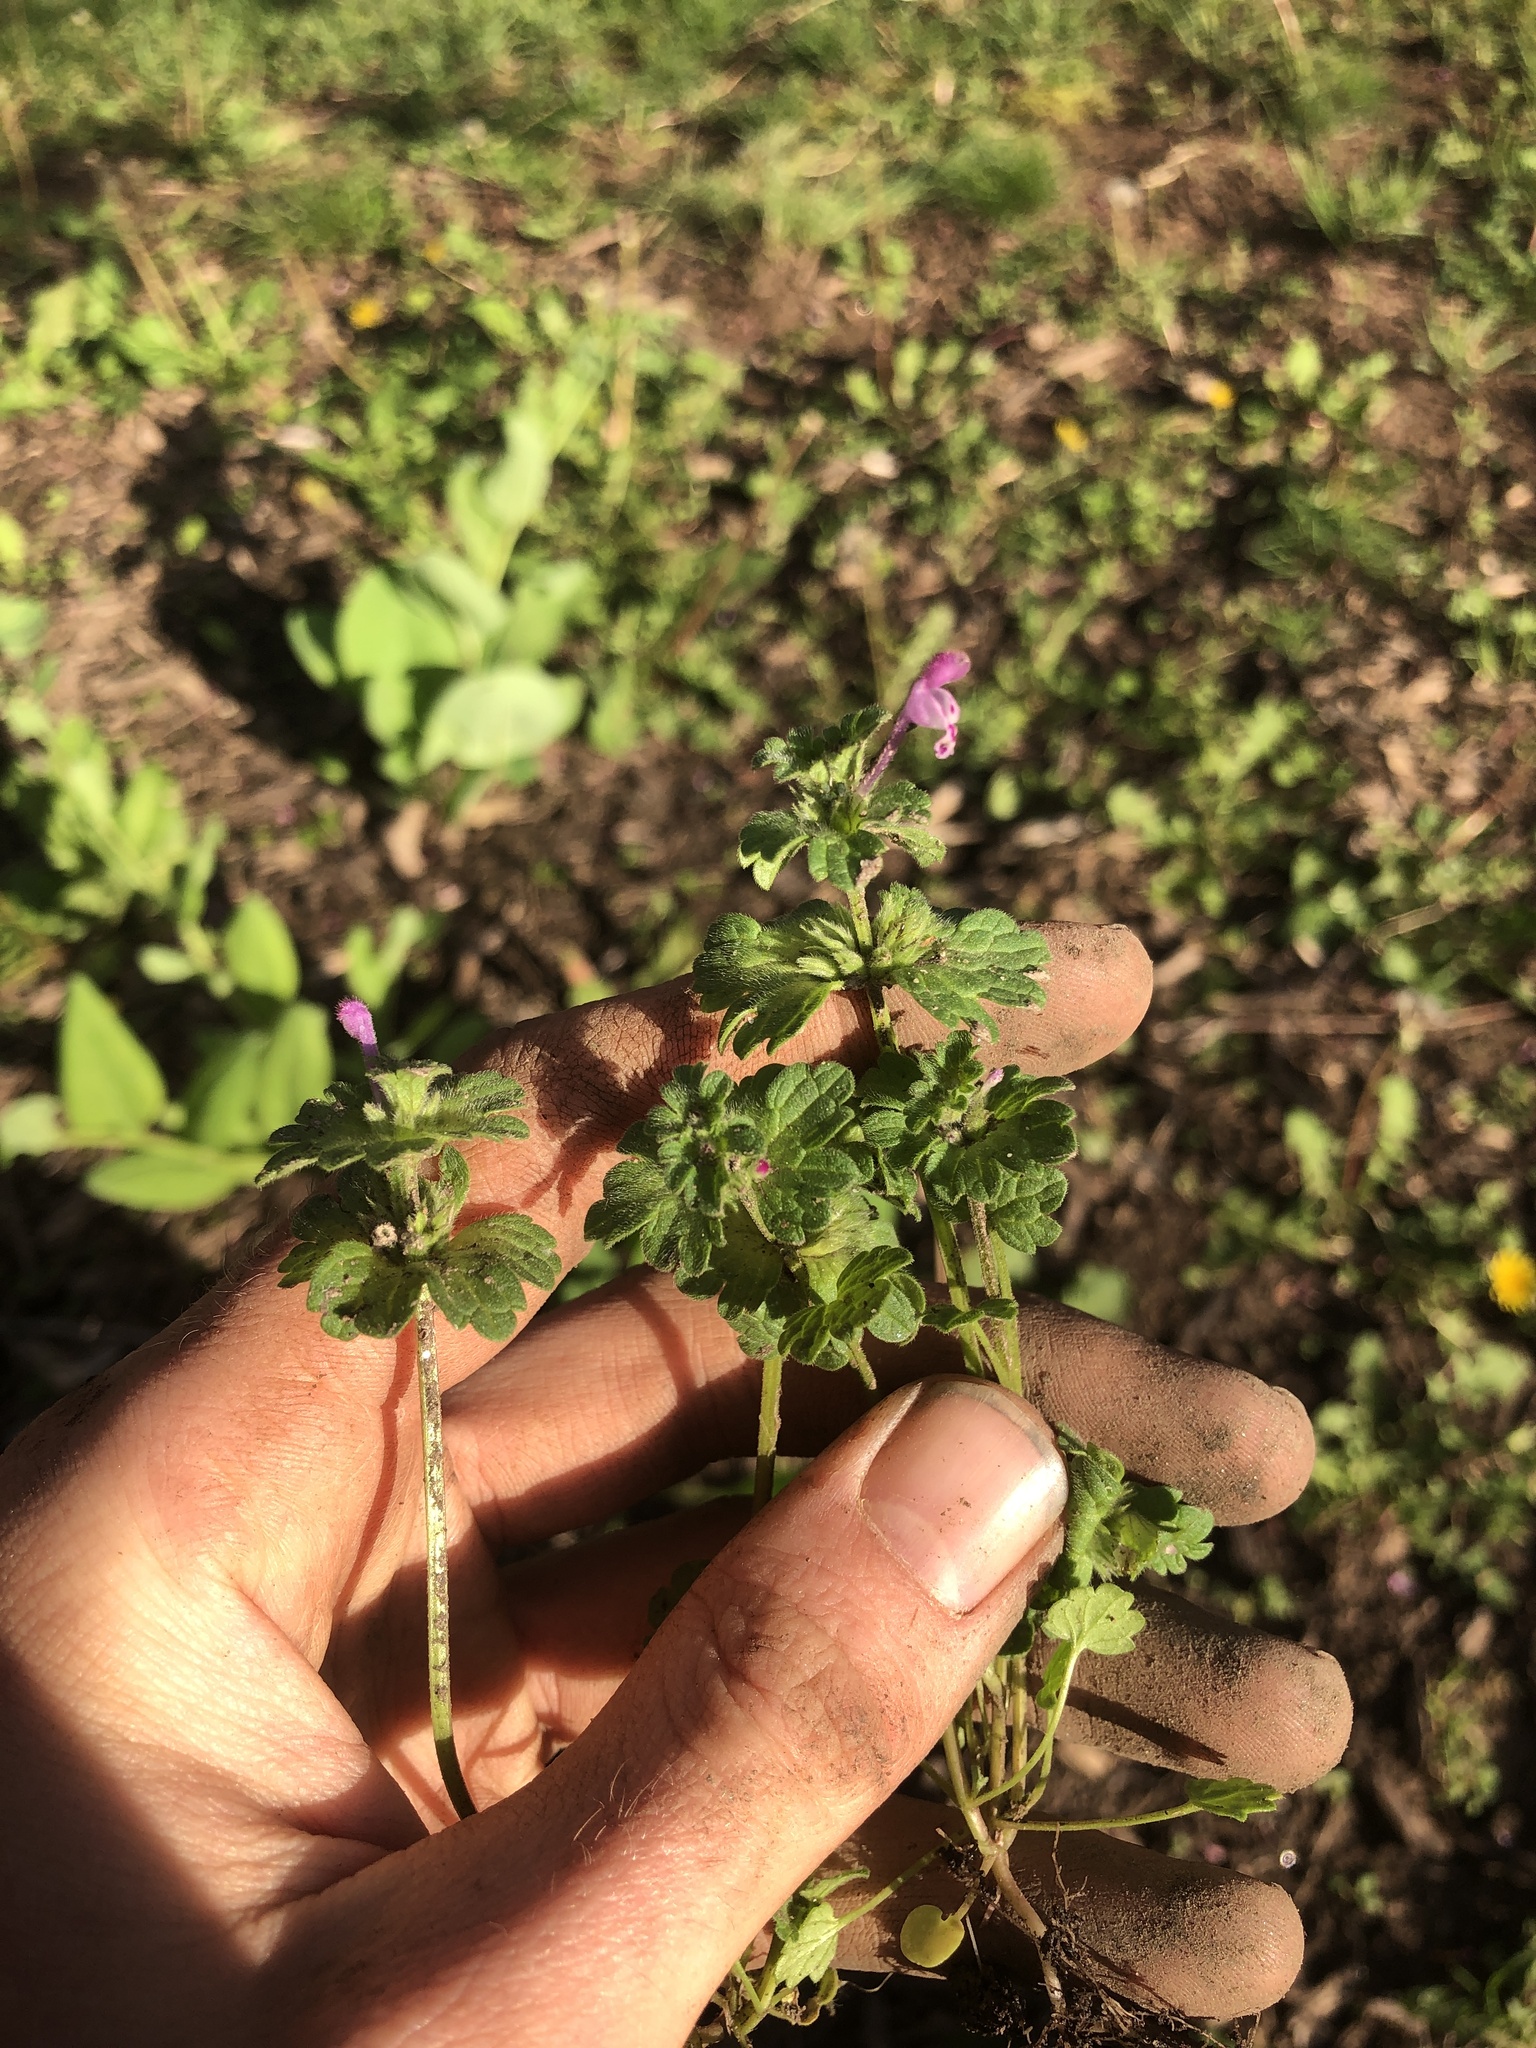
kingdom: Plantae
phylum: Tracheophyta
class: Magnoliopsida
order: Lamiales
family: Lamiaceae
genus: Lamium
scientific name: Lamium amplexicaule
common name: Henbit dead-nettle
